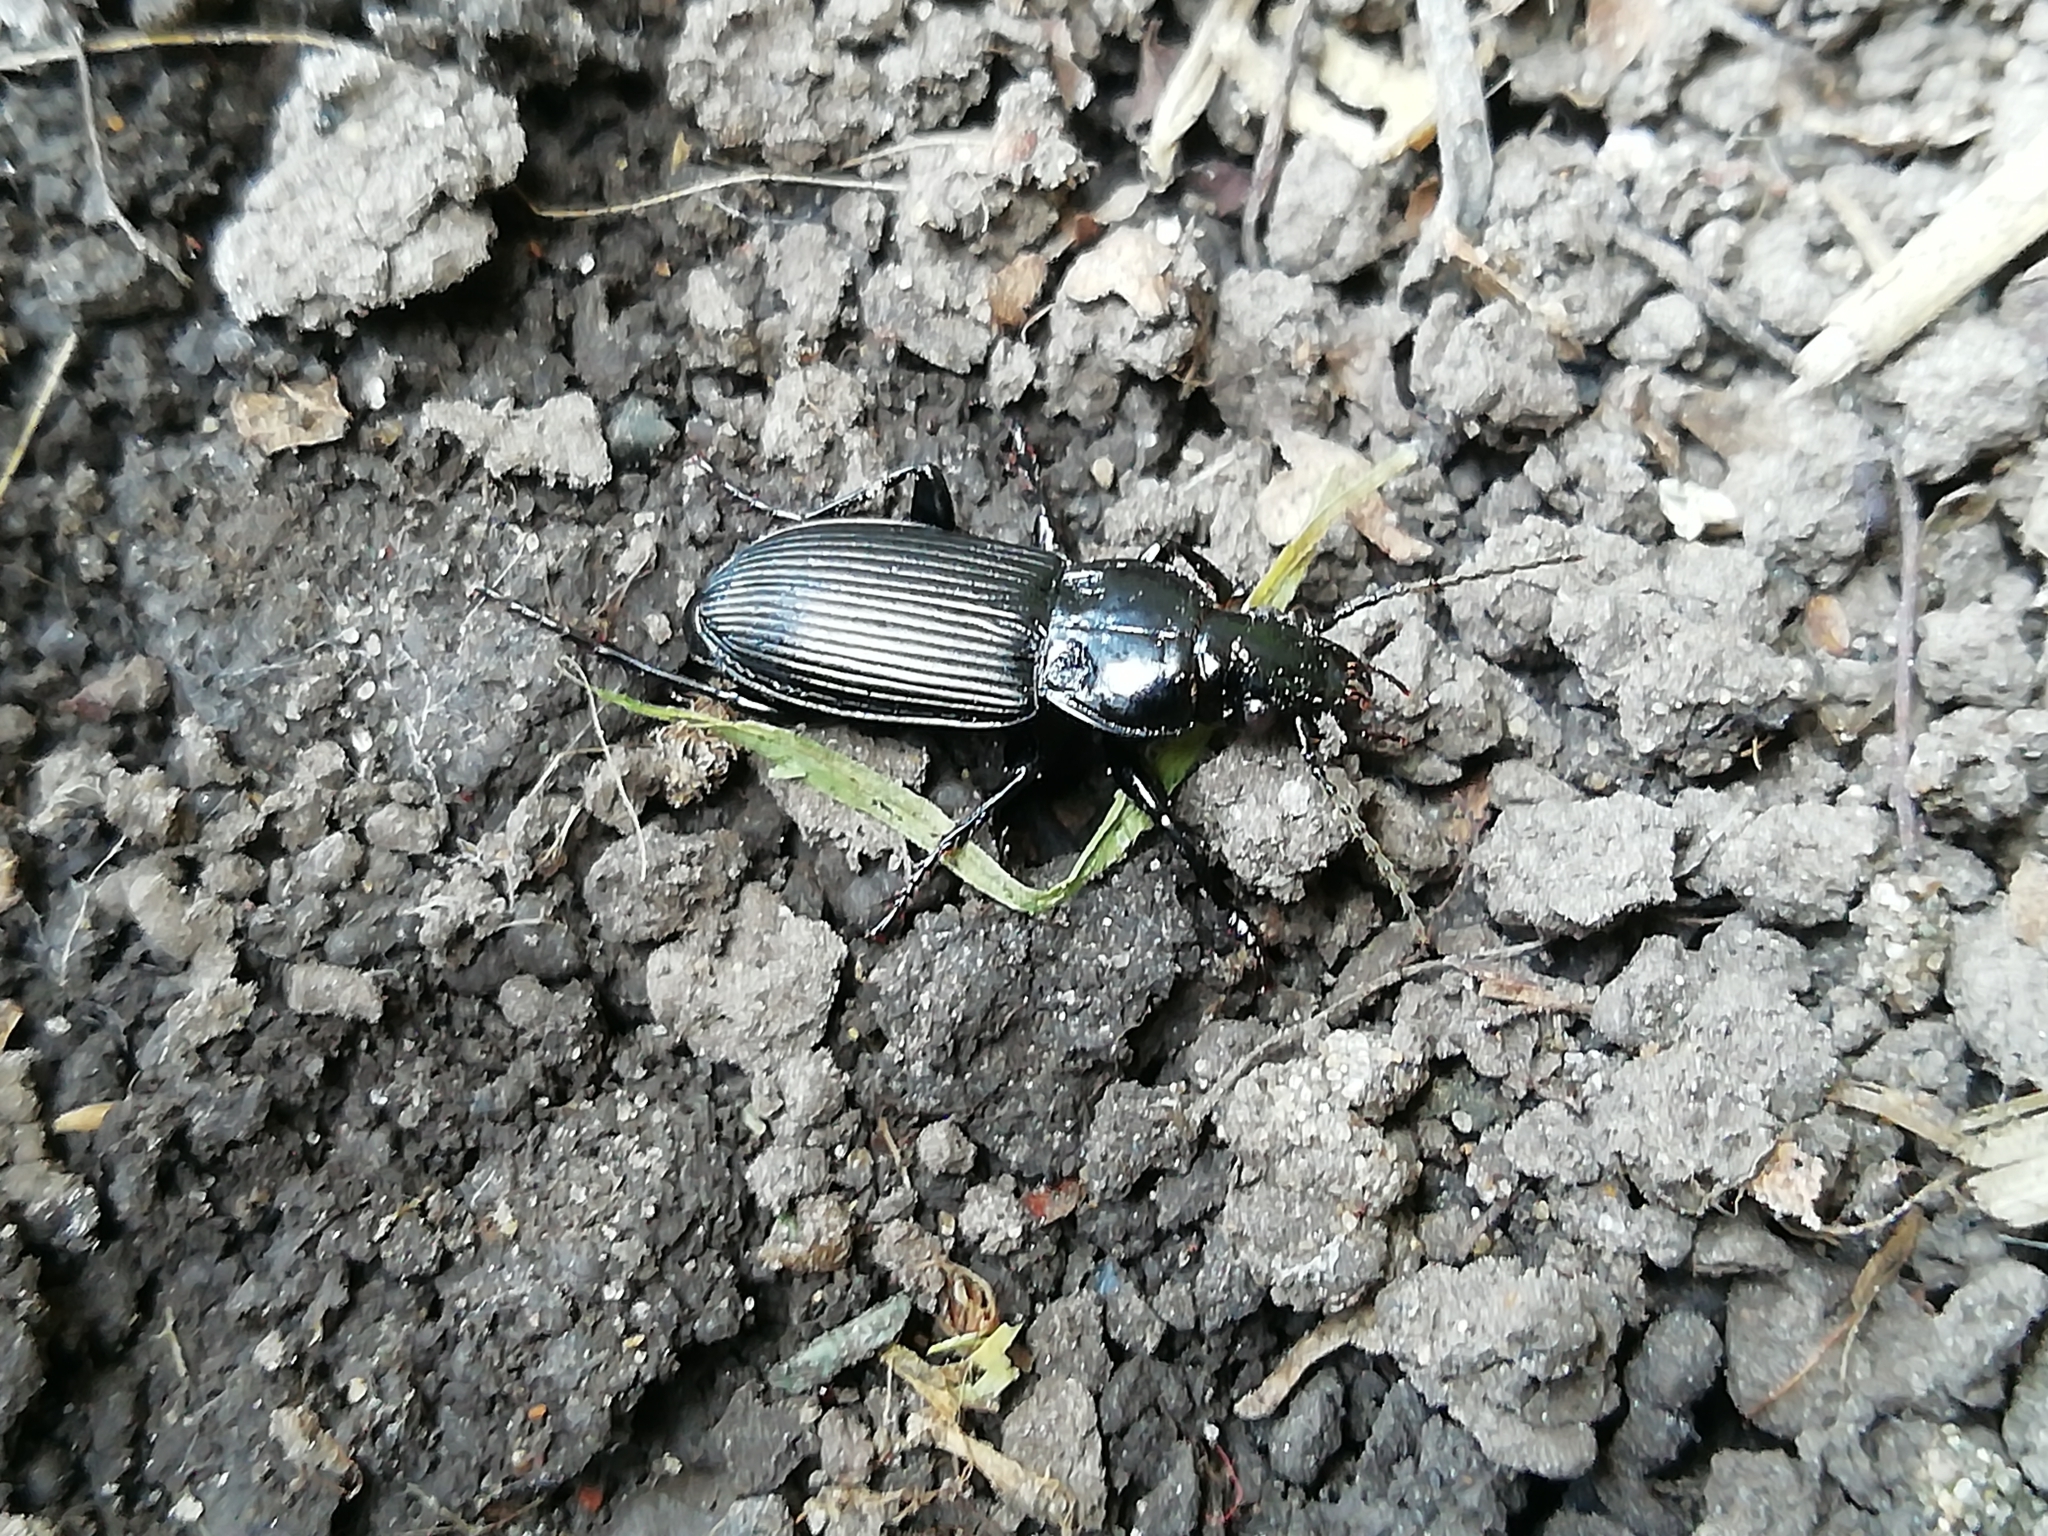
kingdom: Animalia
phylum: Arthropoda
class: Insecta
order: Coleoptera
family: Carabidae
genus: Pterostichus
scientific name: Pterostichus melanarius
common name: European dark harp ground beetle
